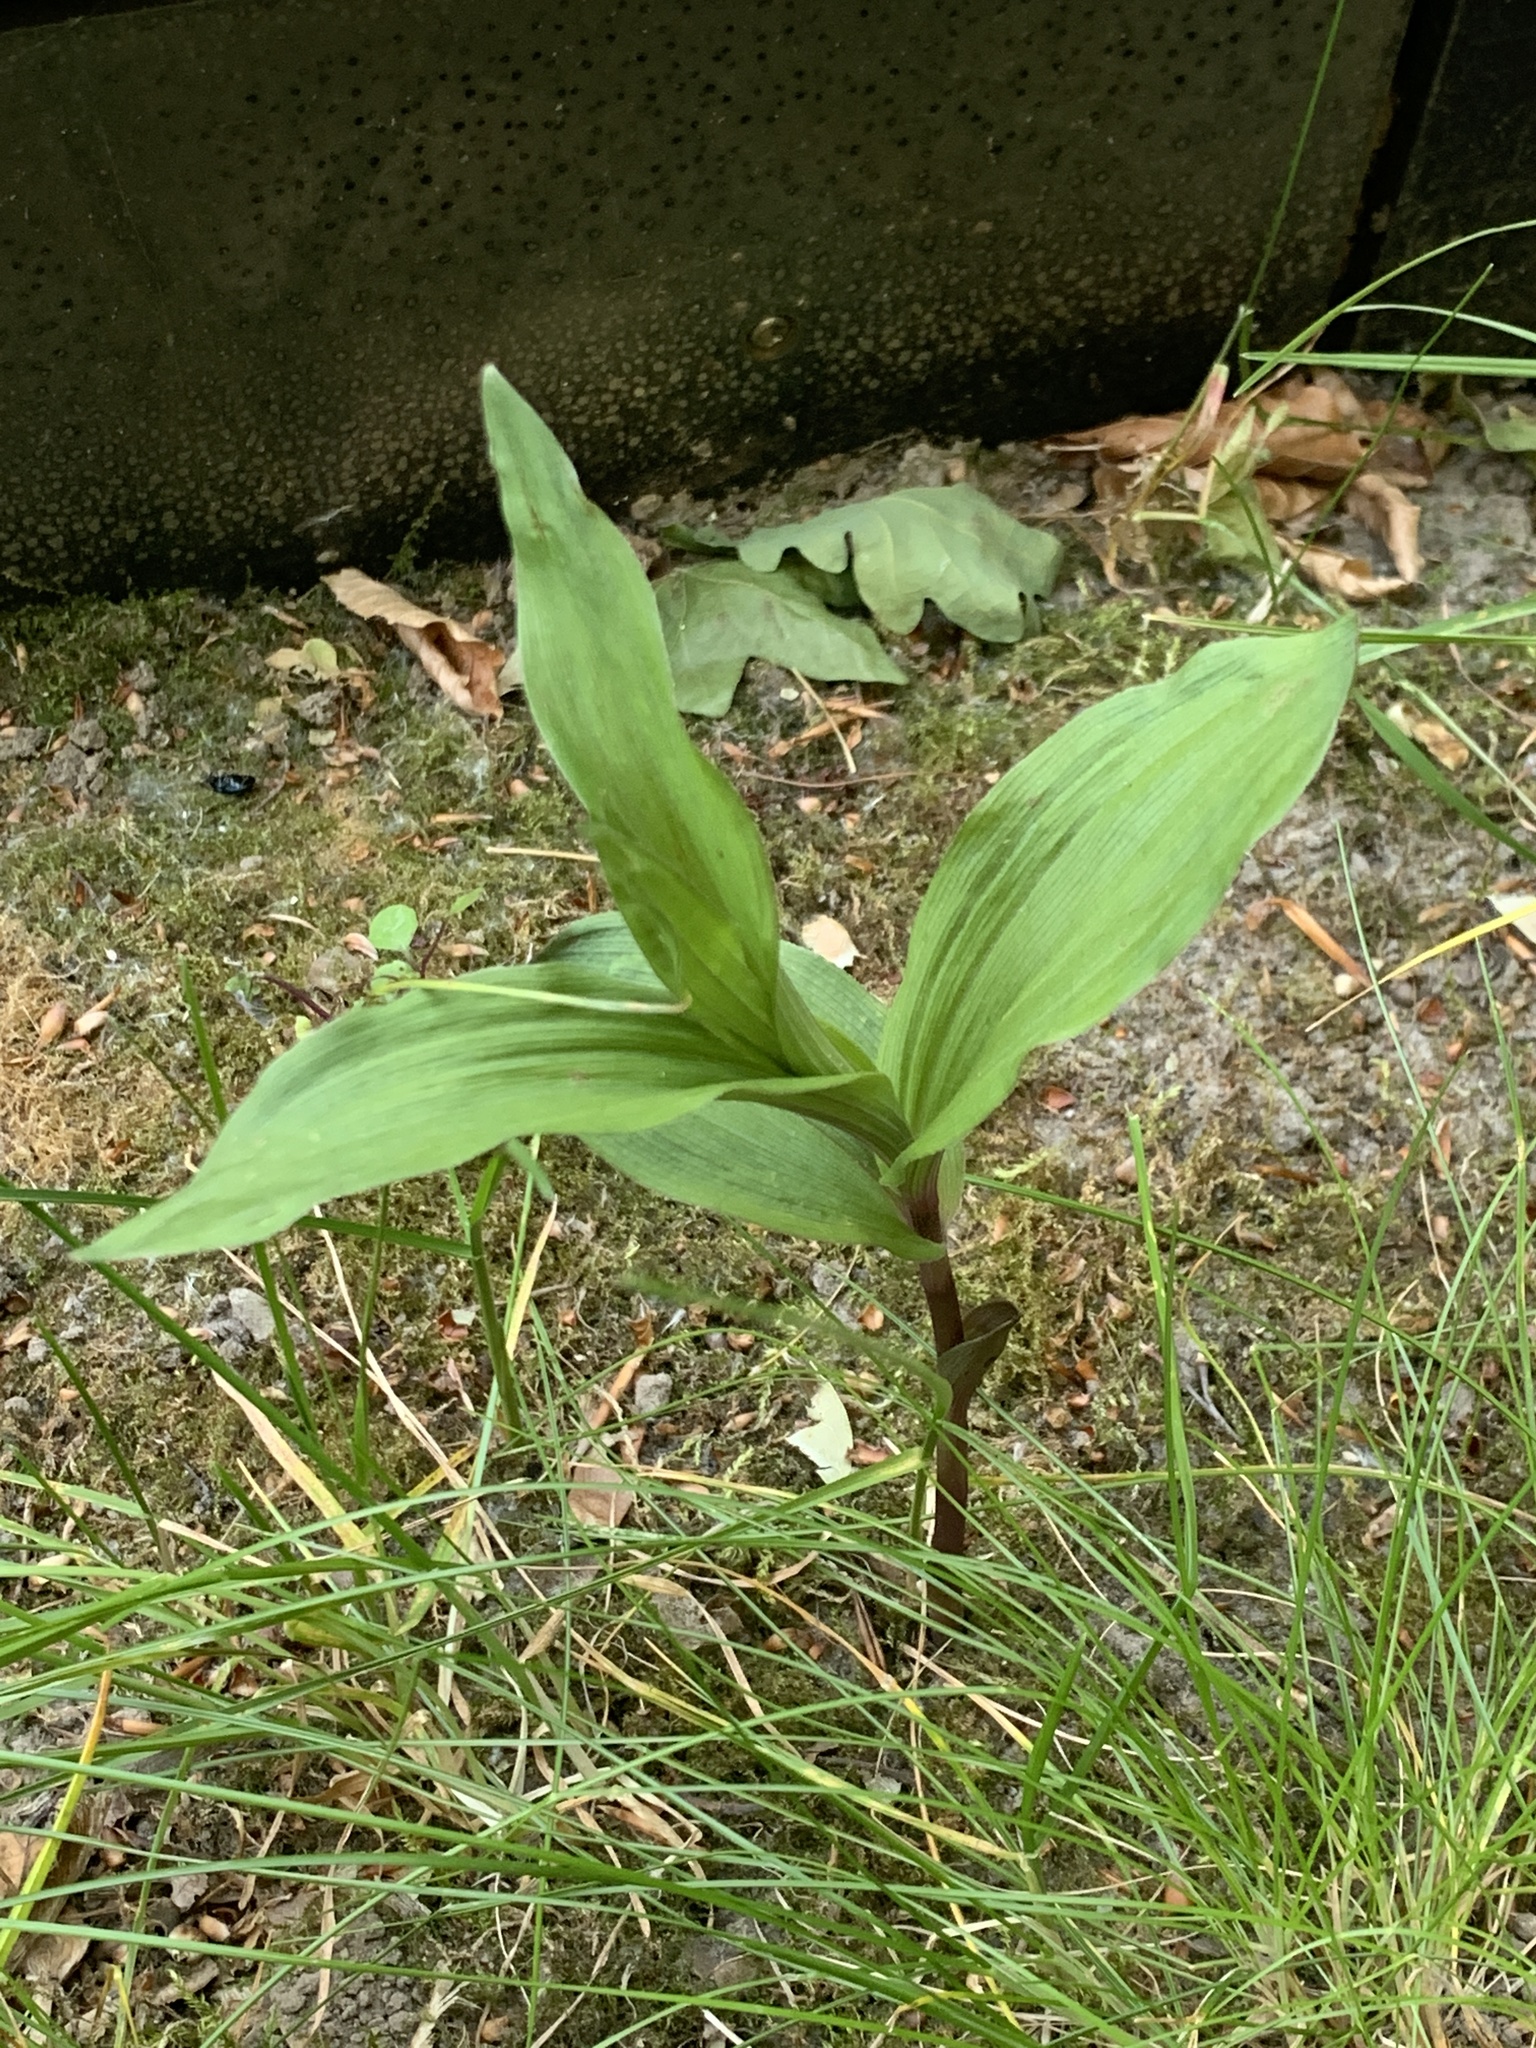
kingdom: Plantae
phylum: Tracheophyta
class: Liliopsida
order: Asparagales
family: Orchidaceae
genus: Epipactis
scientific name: Epipactis helleborine
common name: Broad-leaved helleborine
